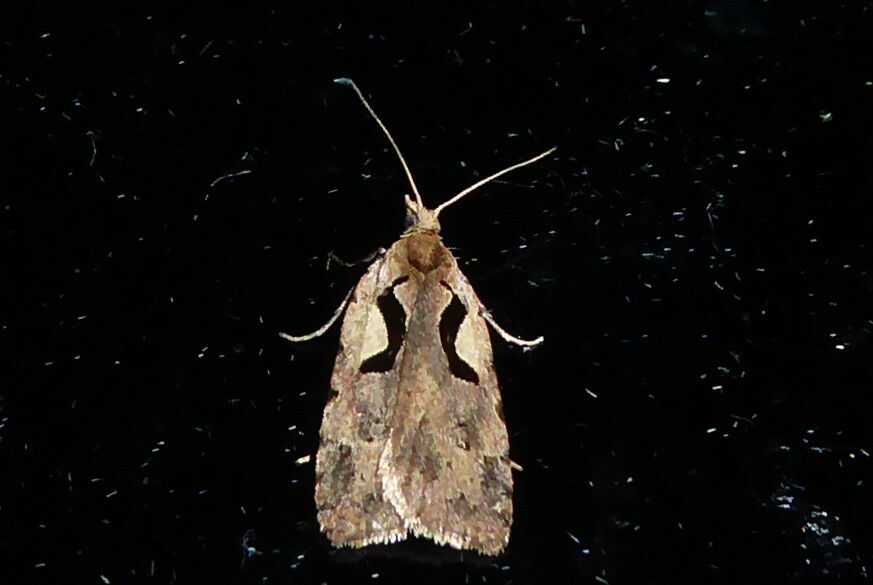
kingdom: Animalia
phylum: Arthropoda
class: Insecta
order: Lepidoptera
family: Tortricidae
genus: Cnephasia
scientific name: Cnephasia jactatana
